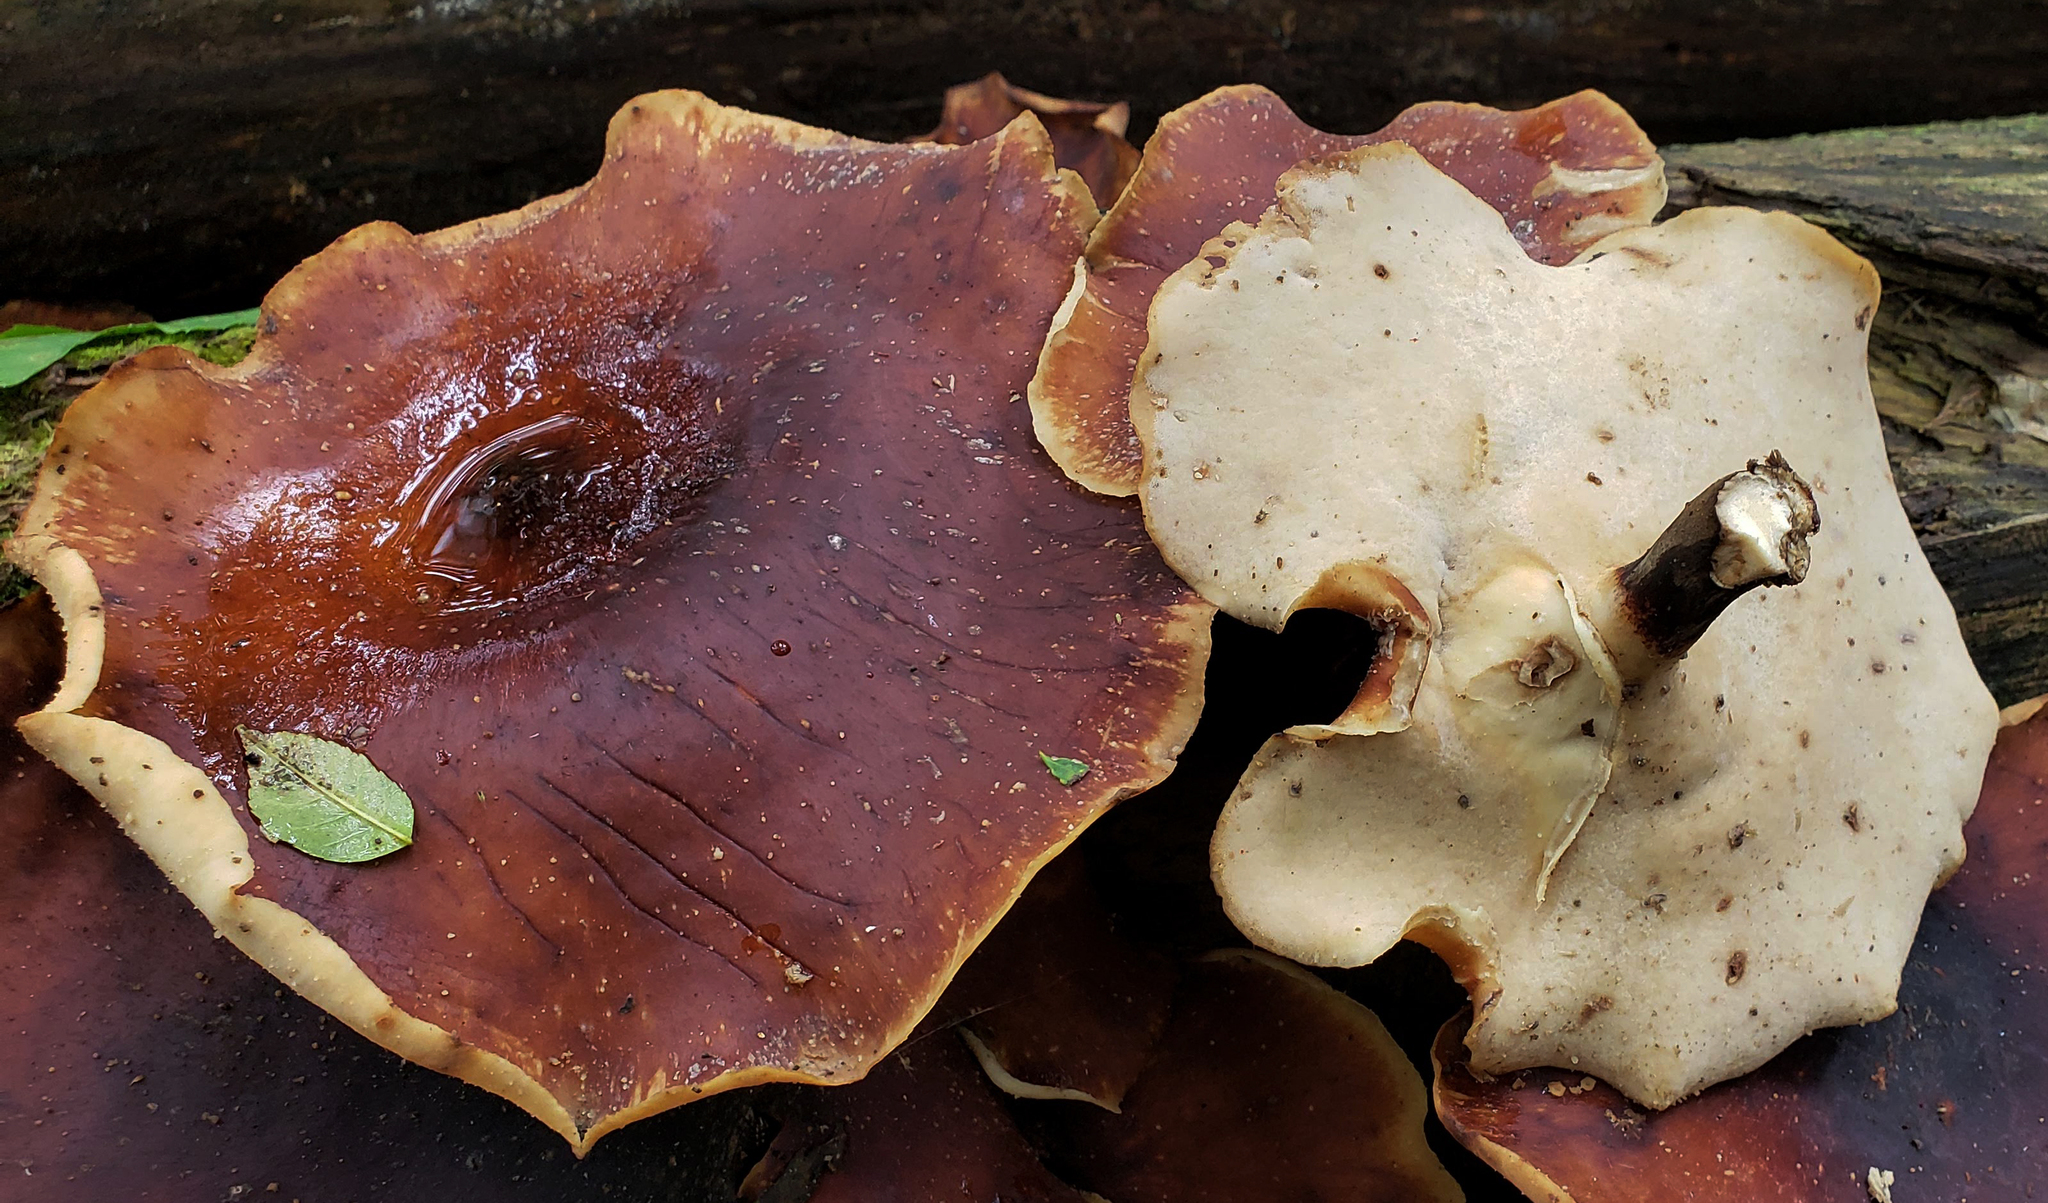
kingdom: Fungi
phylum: Basidiomycota
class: Agaricomycetes
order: Polyporales
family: Polyporaceae
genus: Picipes
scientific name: Picipes badius
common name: Bay polypore
